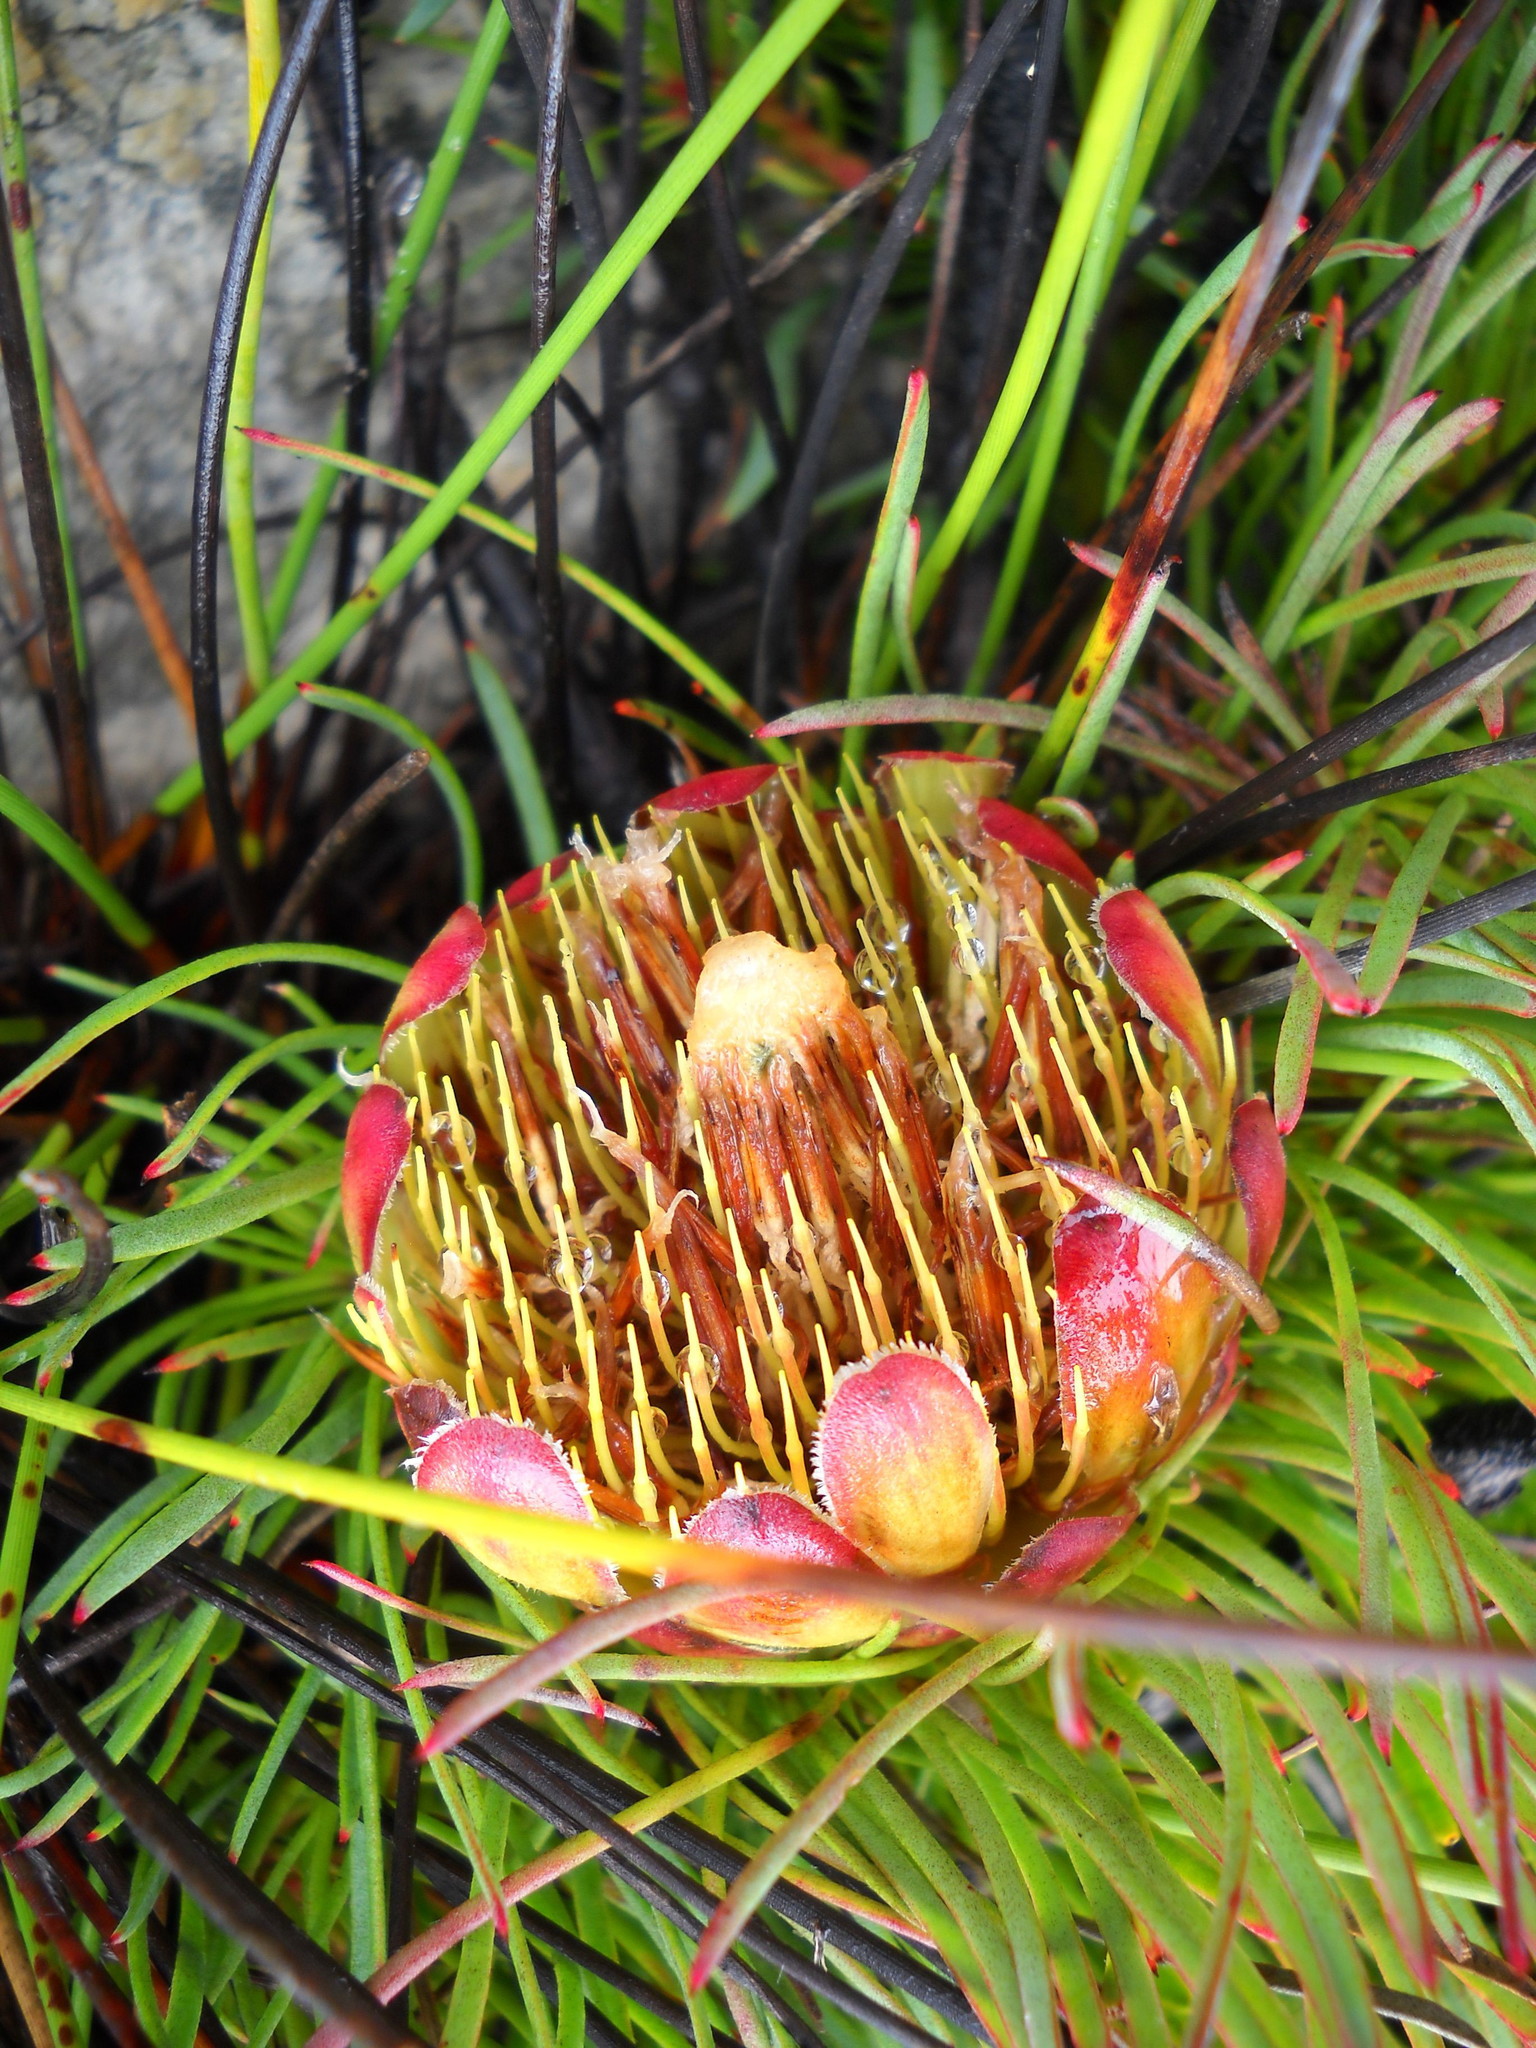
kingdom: Plantae
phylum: Tracheophyta
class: Magnoliopsida
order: Proteales
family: Proteaceae
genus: Protea
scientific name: Protea montana
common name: Swartberg sugarbush
